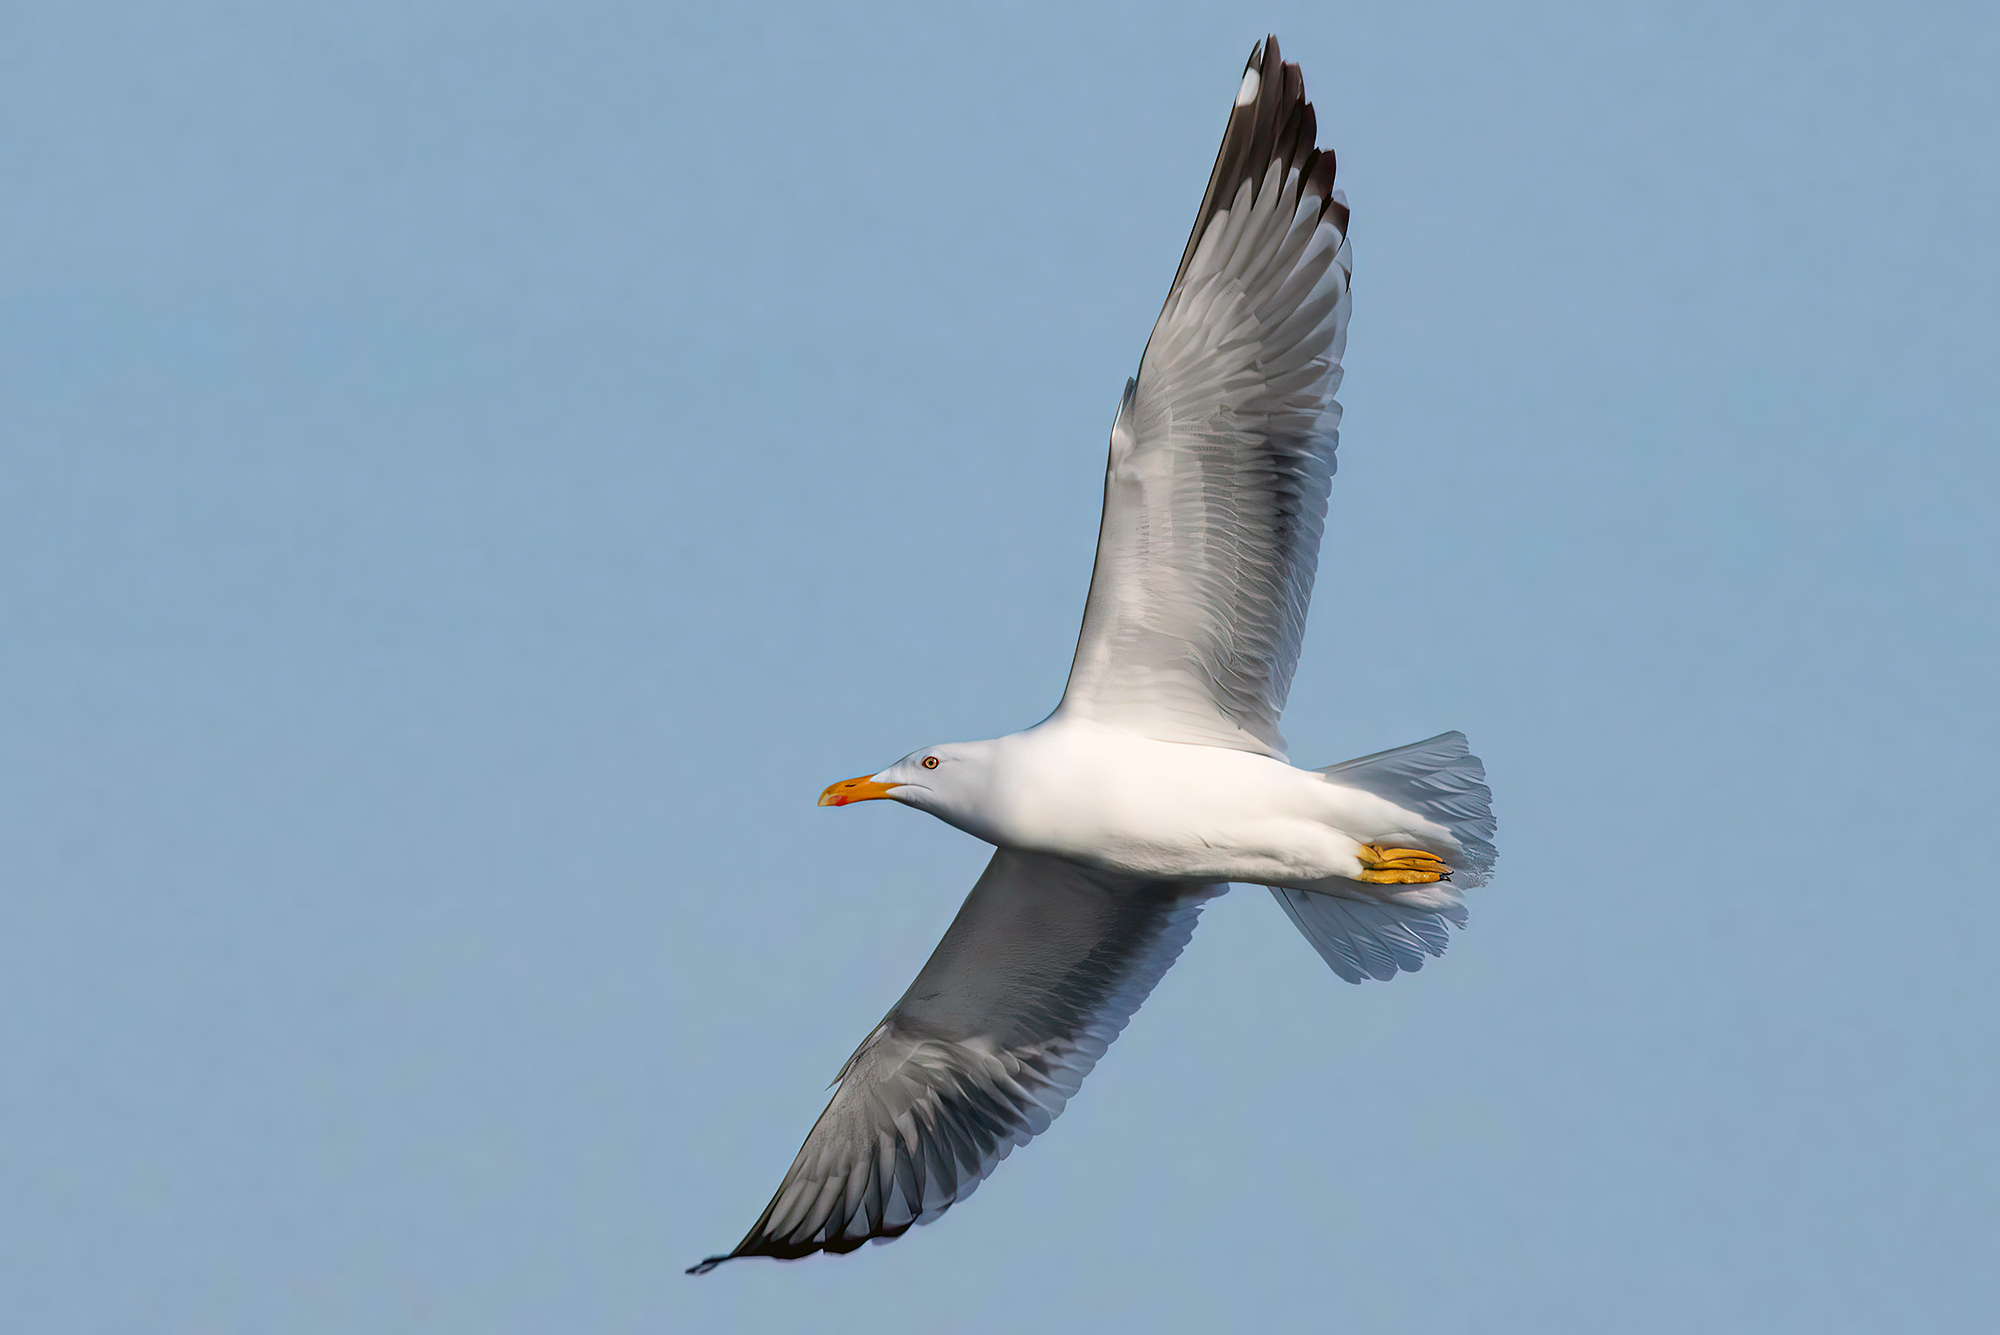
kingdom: Animalia
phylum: Chordata
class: Aves
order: Charadriiformes
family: Laridae
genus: Larus
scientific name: Larus fuscus
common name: Lesser black-backed gull
